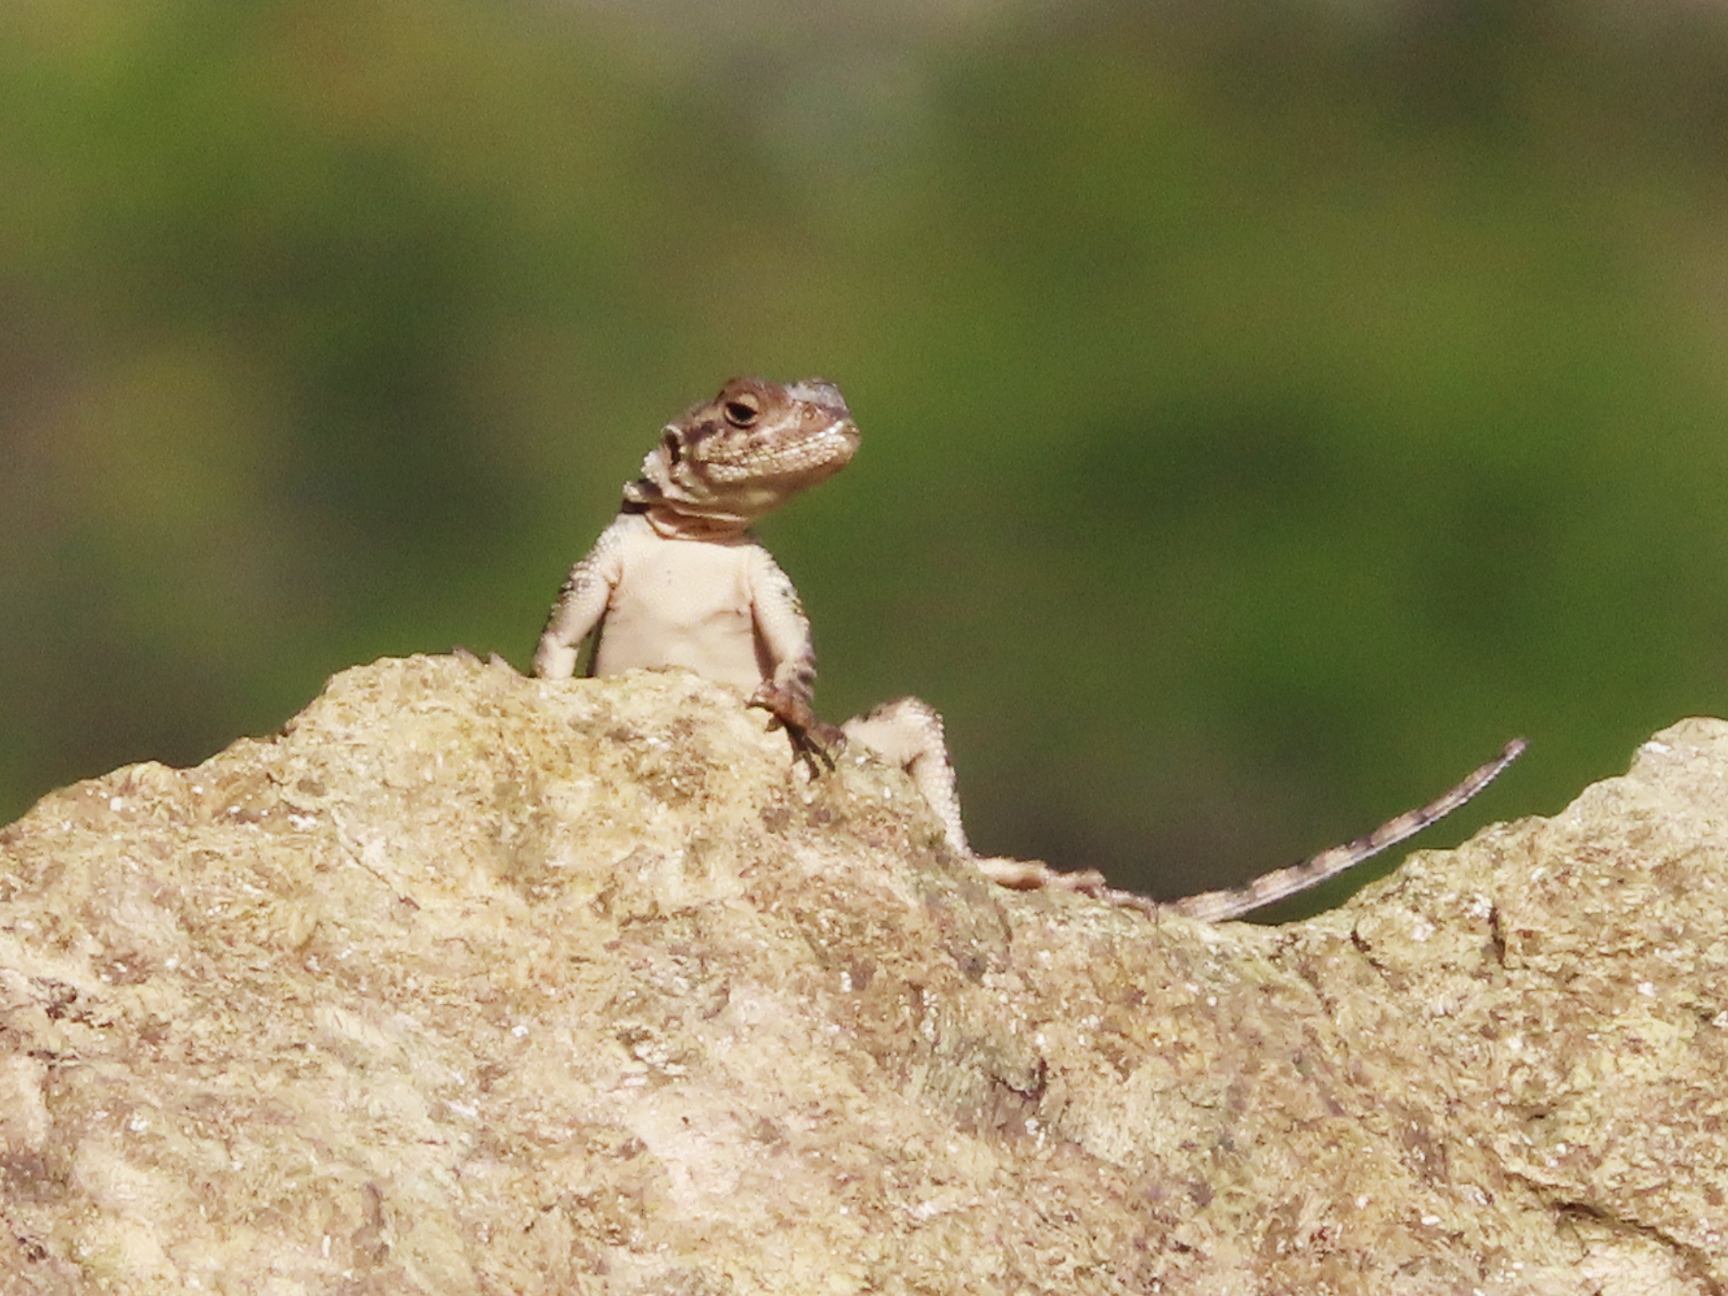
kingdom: Animalia
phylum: Chordata
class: Squamata
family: Agamidae
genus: Paralaudakia
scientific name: Paralaudakia caucasia
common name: Caucasian agama
